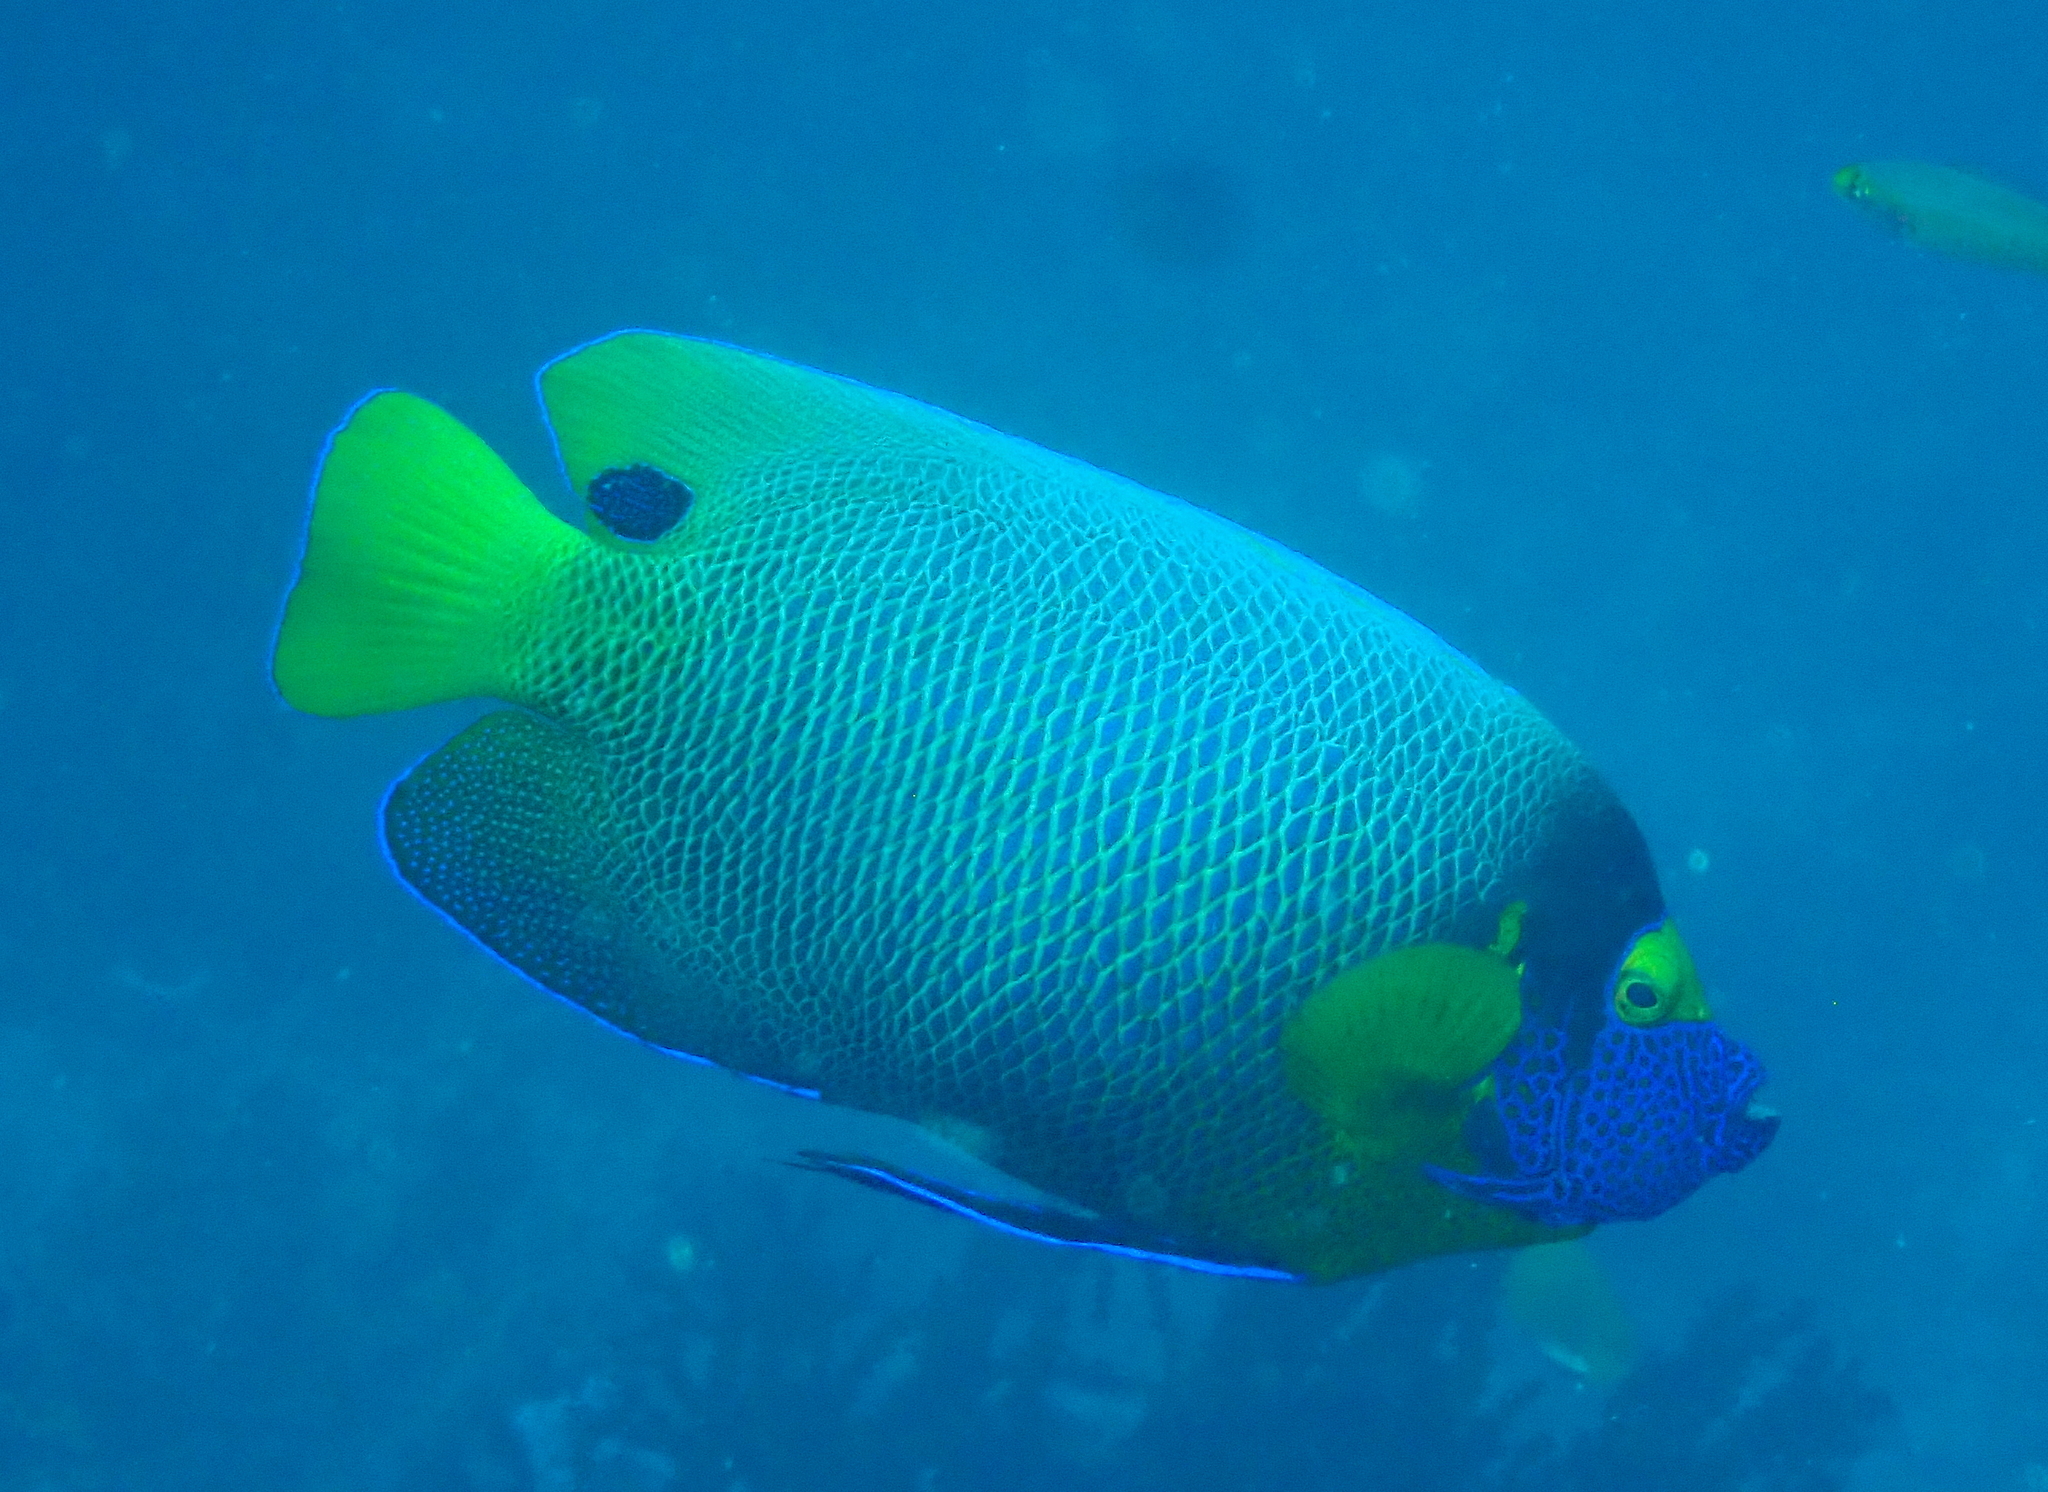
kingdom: Animalia
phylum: Chordata
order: Perciformes
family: Pomacanthidae
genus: Pomacanthus
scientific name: Pomacanthus xanthometopon
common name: Yellow-faced angelfish
